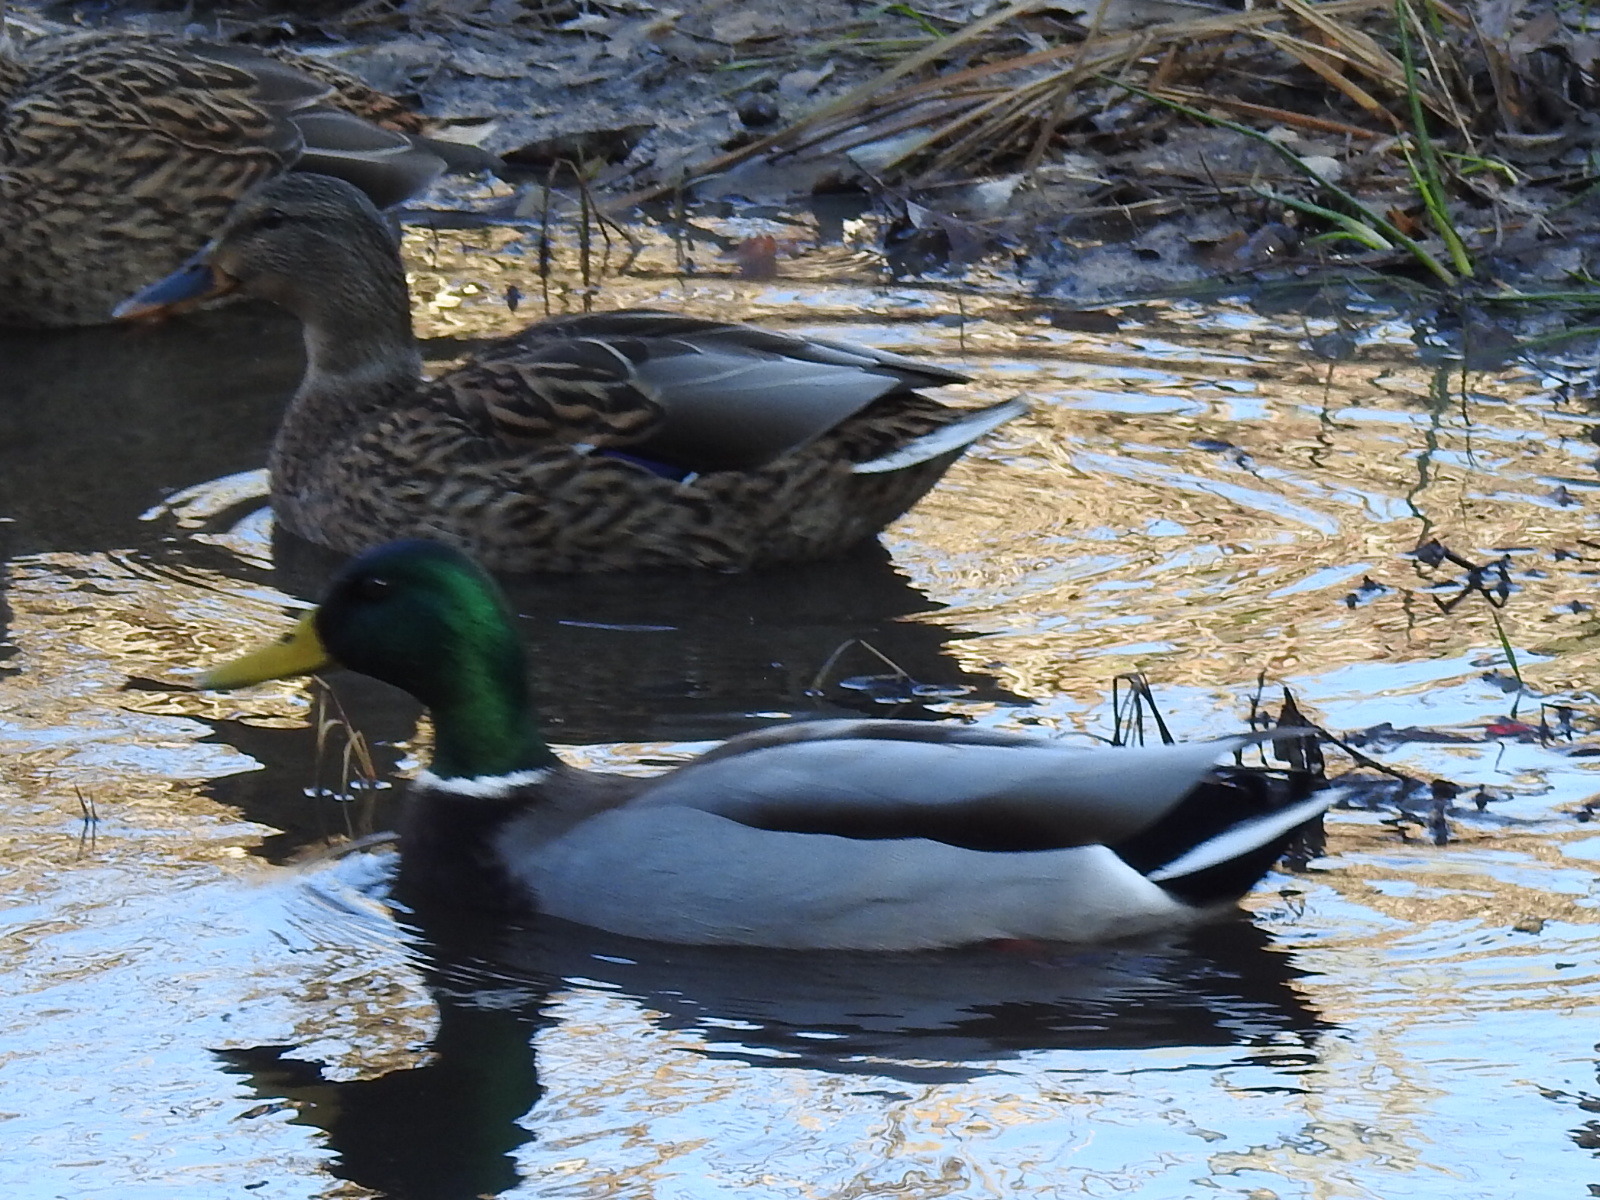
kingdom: Animalia
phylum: Chordata
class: Aves
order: Anseriformes
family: Anatidae
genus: Anas
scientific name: Anas platyrhynchos
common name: Mallard
